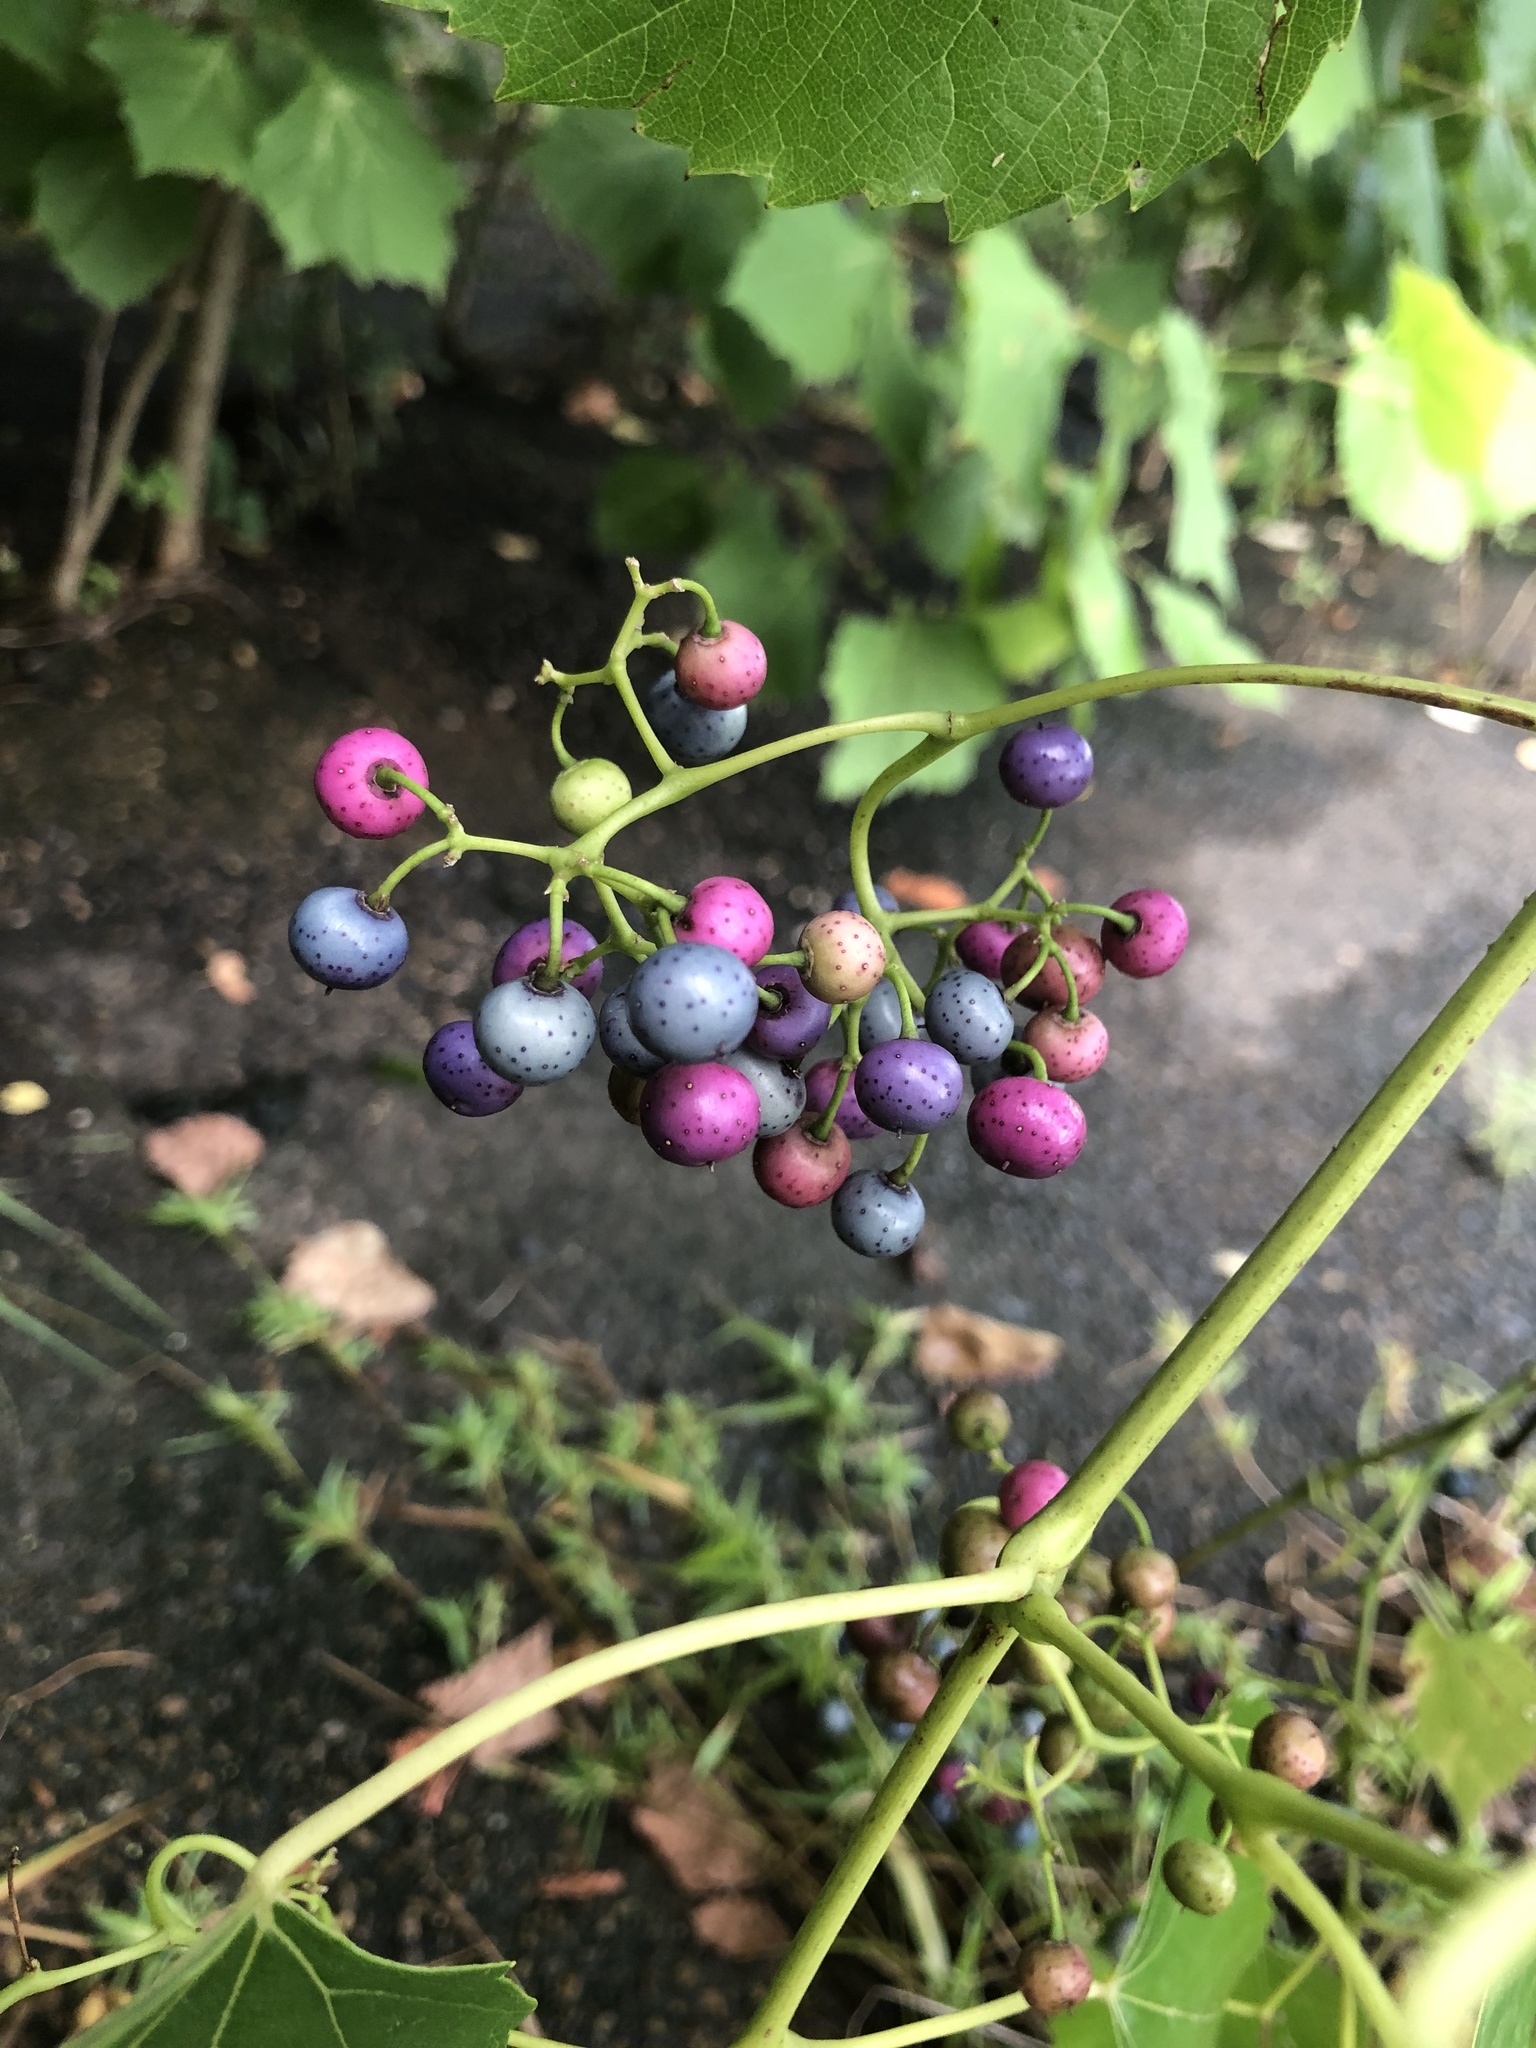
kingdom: Plantae
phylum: Tracheophyta
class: Magnoliopsida
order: Vitales
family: Vitaceae
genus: Ampelopsis
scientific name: Ampelopsis cordata
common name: Heart-leaf ampelopsis
